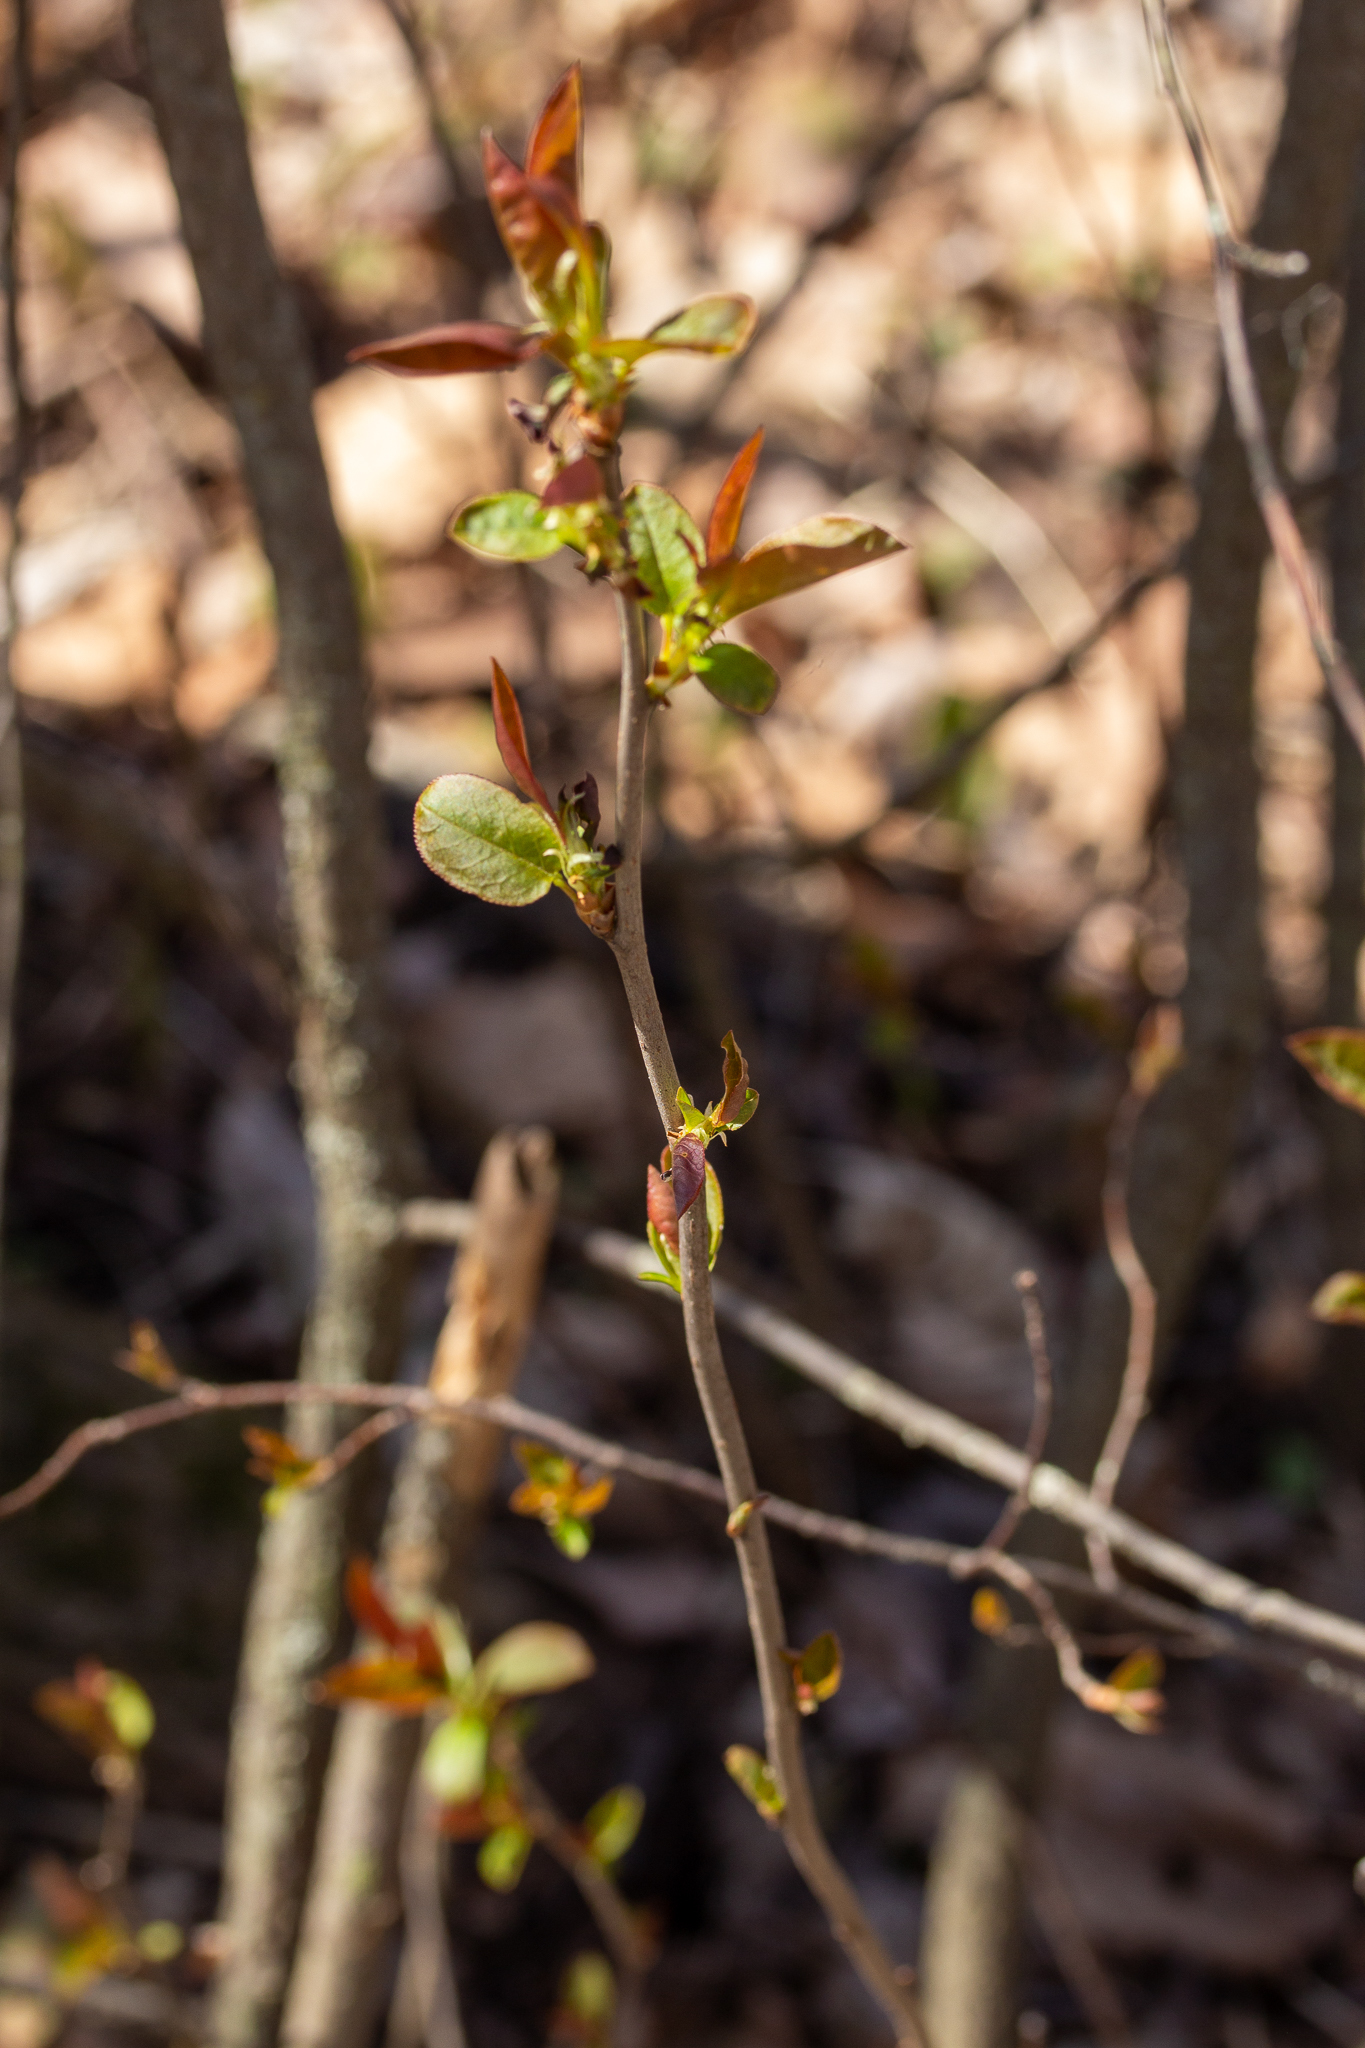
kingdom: Plantae
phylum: Tracheophyta
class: Magnoliopsida
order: Rosales
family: Rosaceae
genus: Prunus
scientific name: Prunus virginiana
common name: Chokecherry
